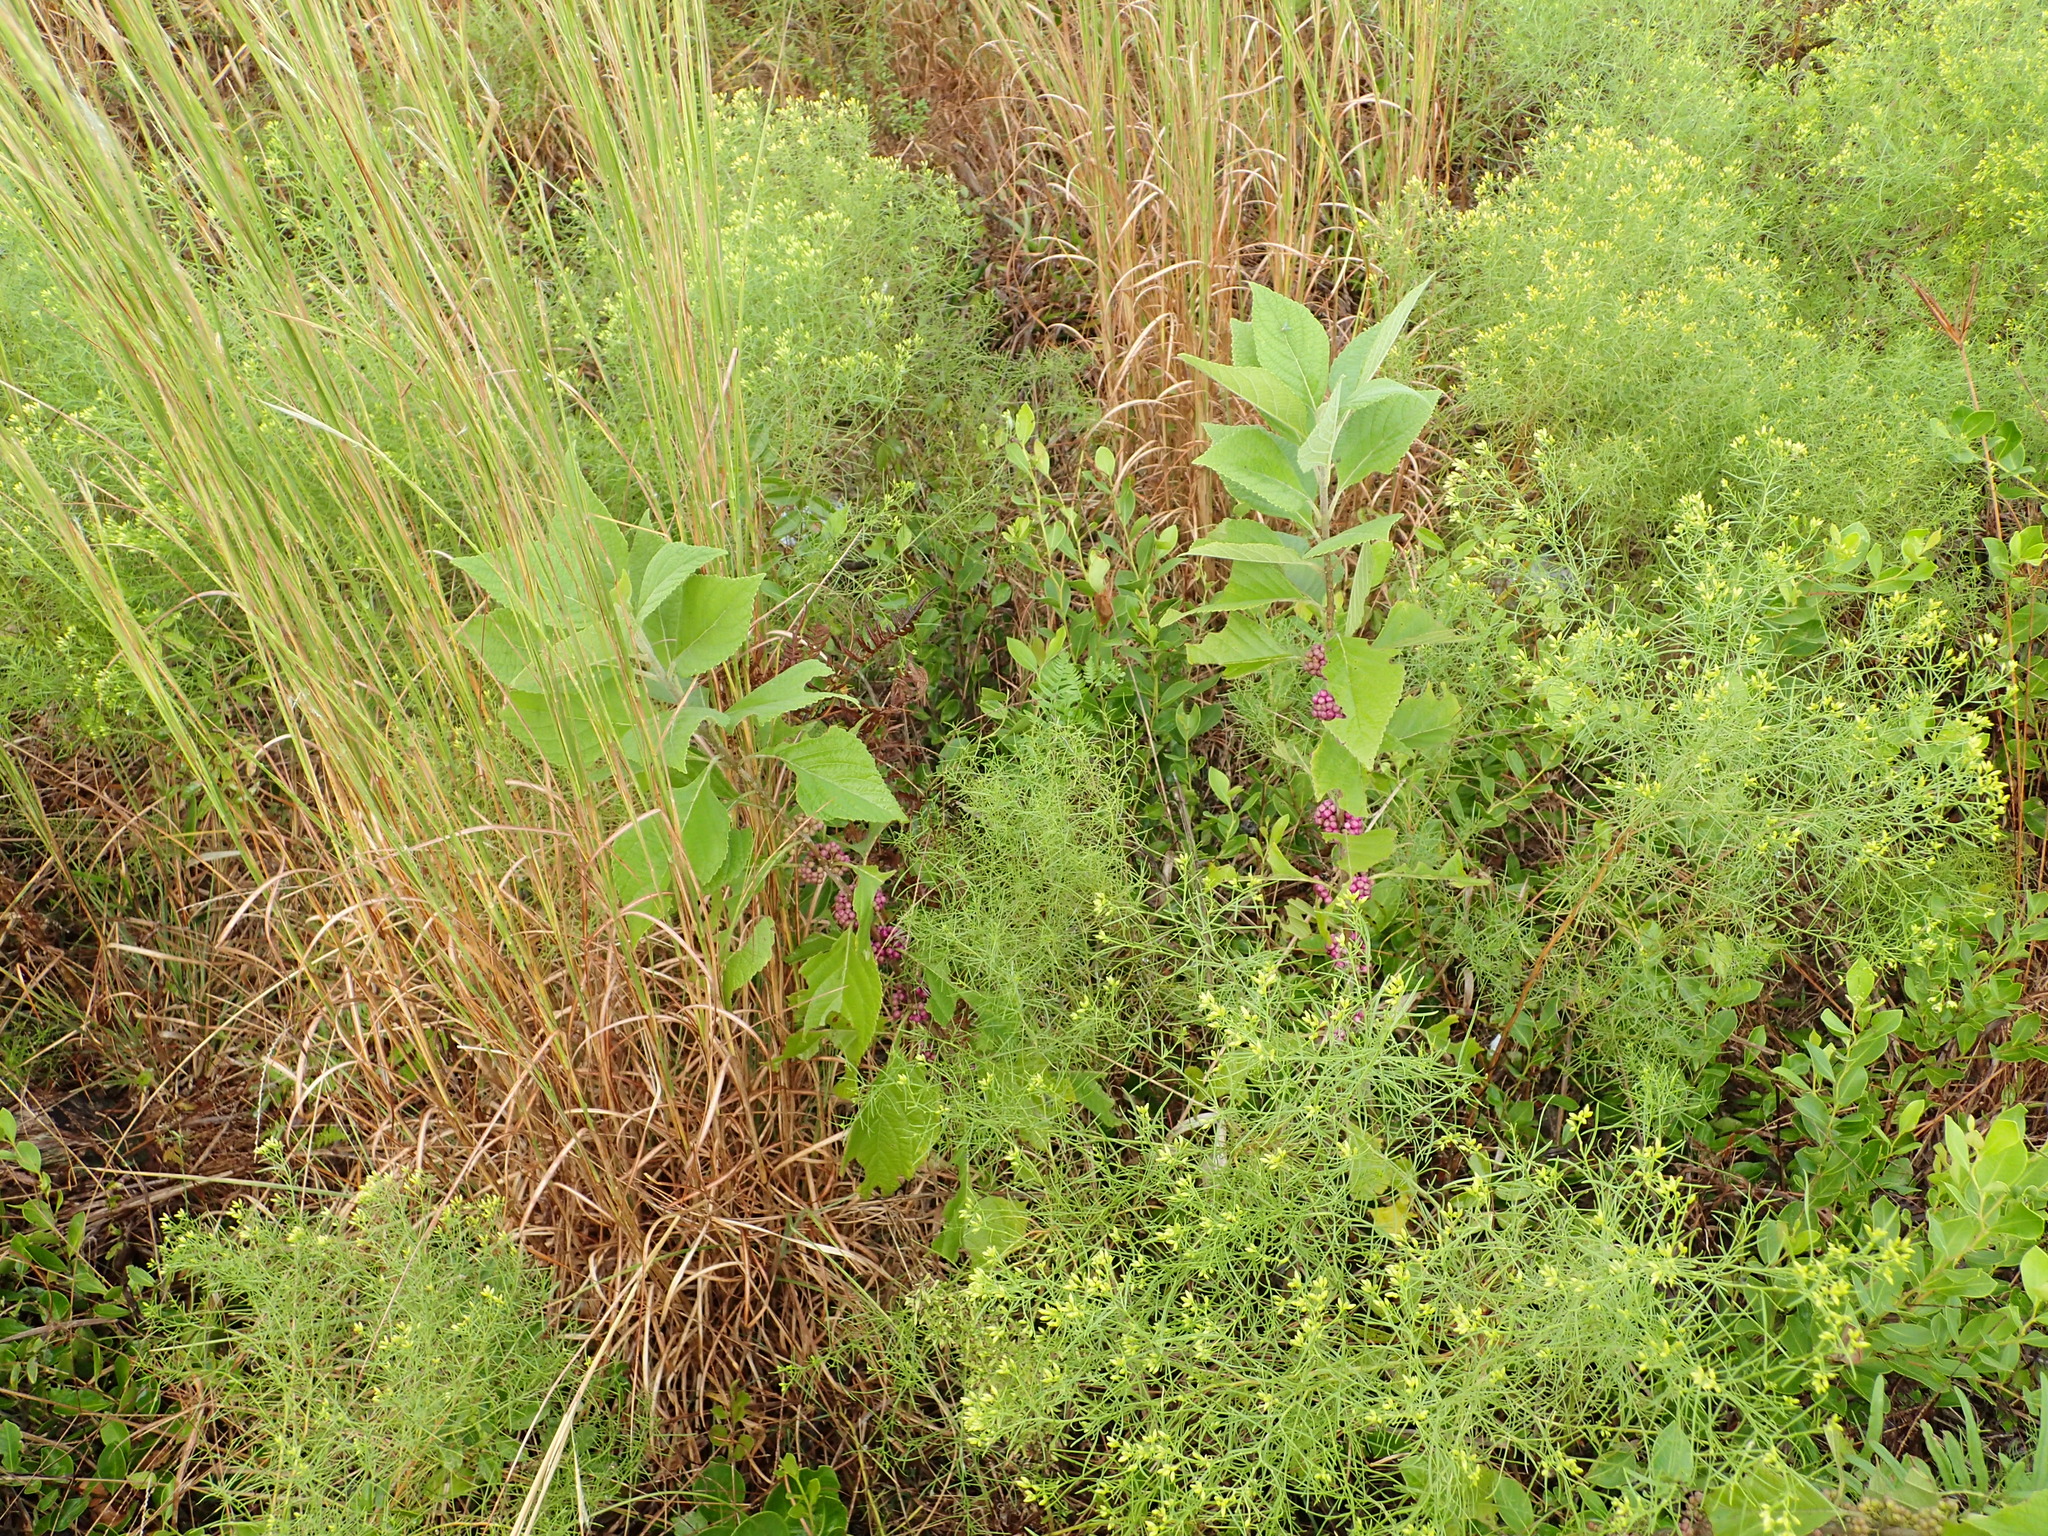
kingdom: Plantae
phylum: Tracheophyta
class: Magnoliopsida
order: Lamiales
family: Lamiaceae
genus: Callicarpa
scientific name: Callicarpa americana
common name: American beautyberry
